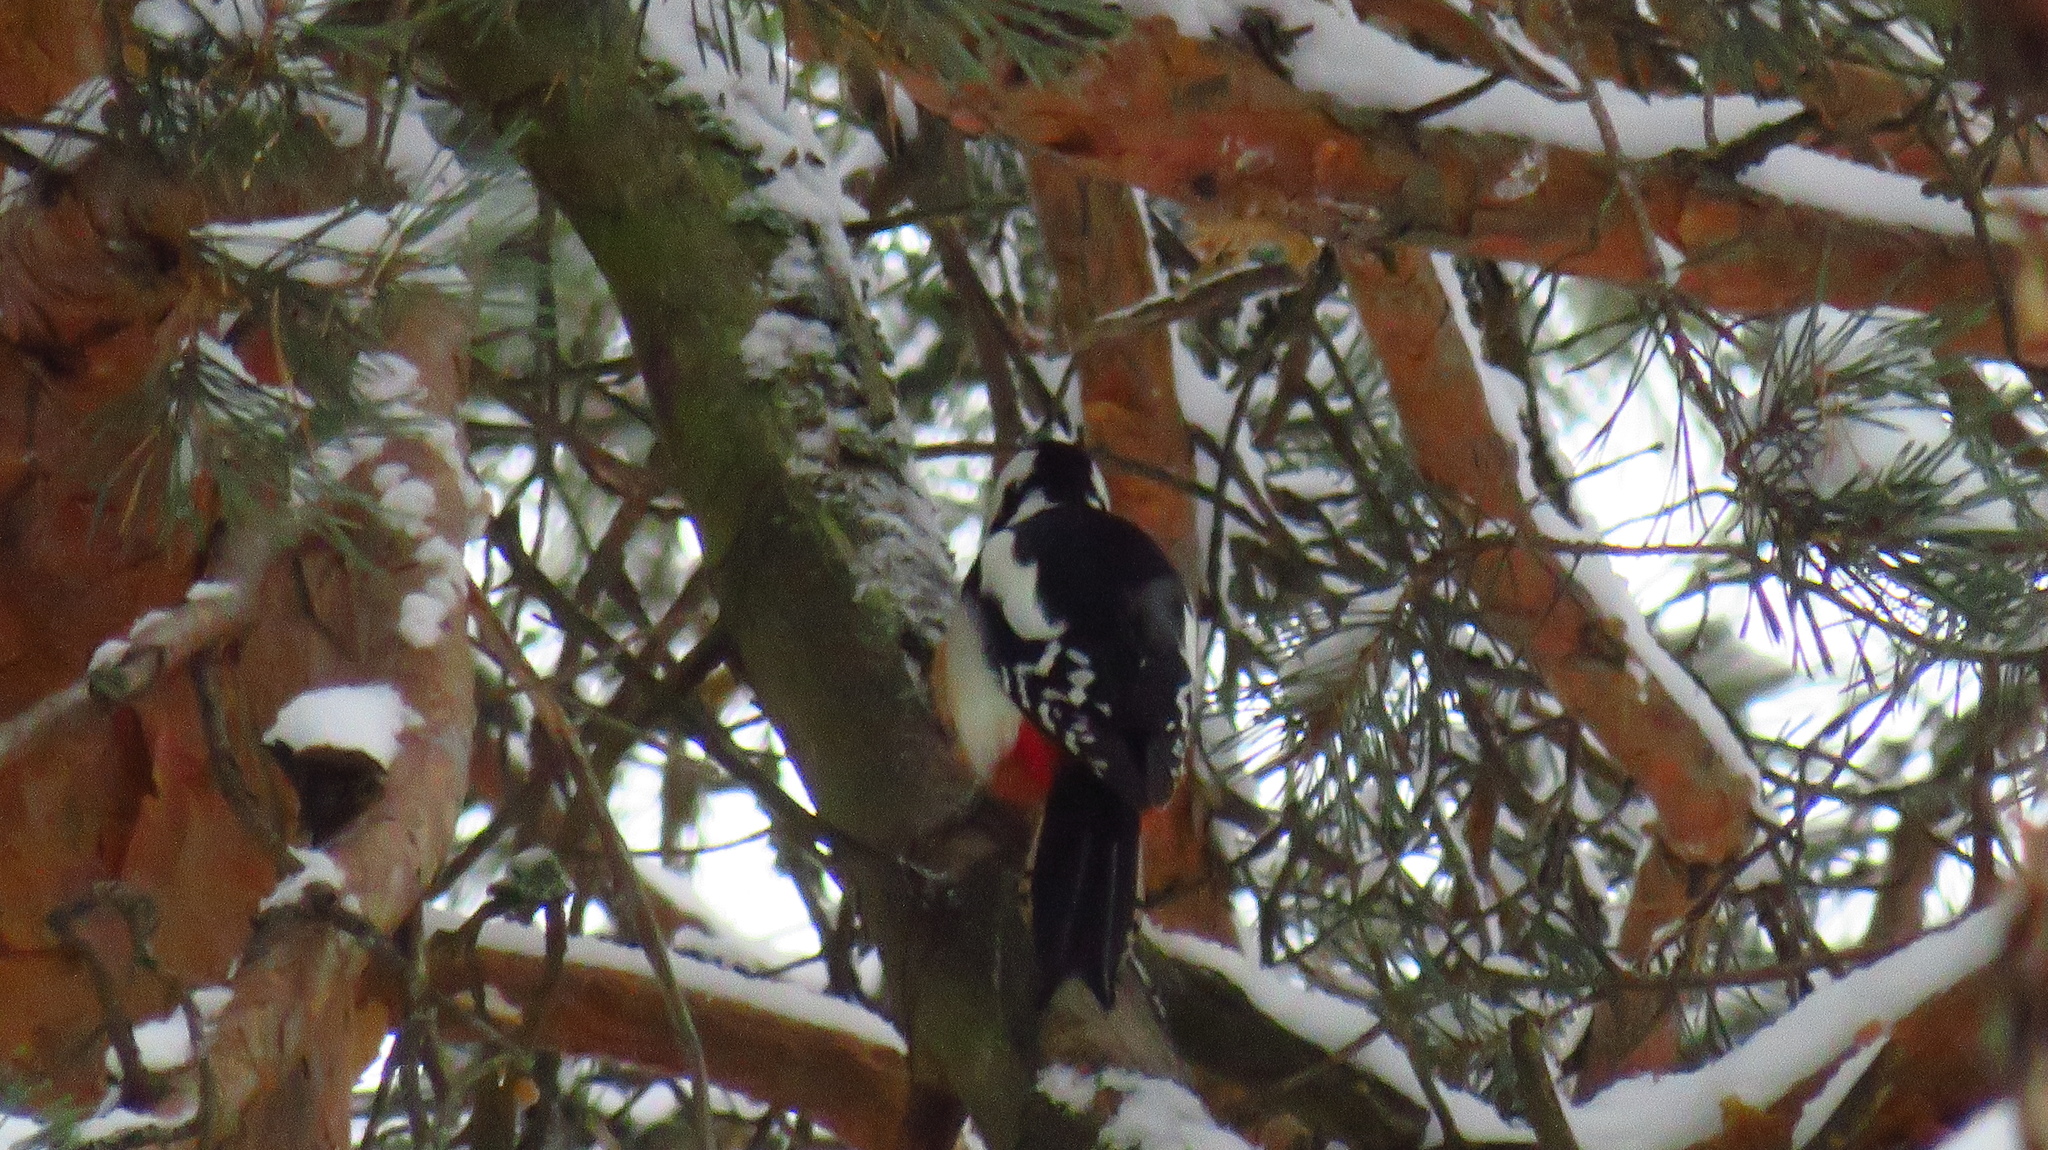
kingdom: Animalia
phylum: Chordata
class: Aves
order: Piciformes
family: Picidae
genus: Dendrocopos
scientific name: Dendrocopos major
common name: Great spotted woodpecker
